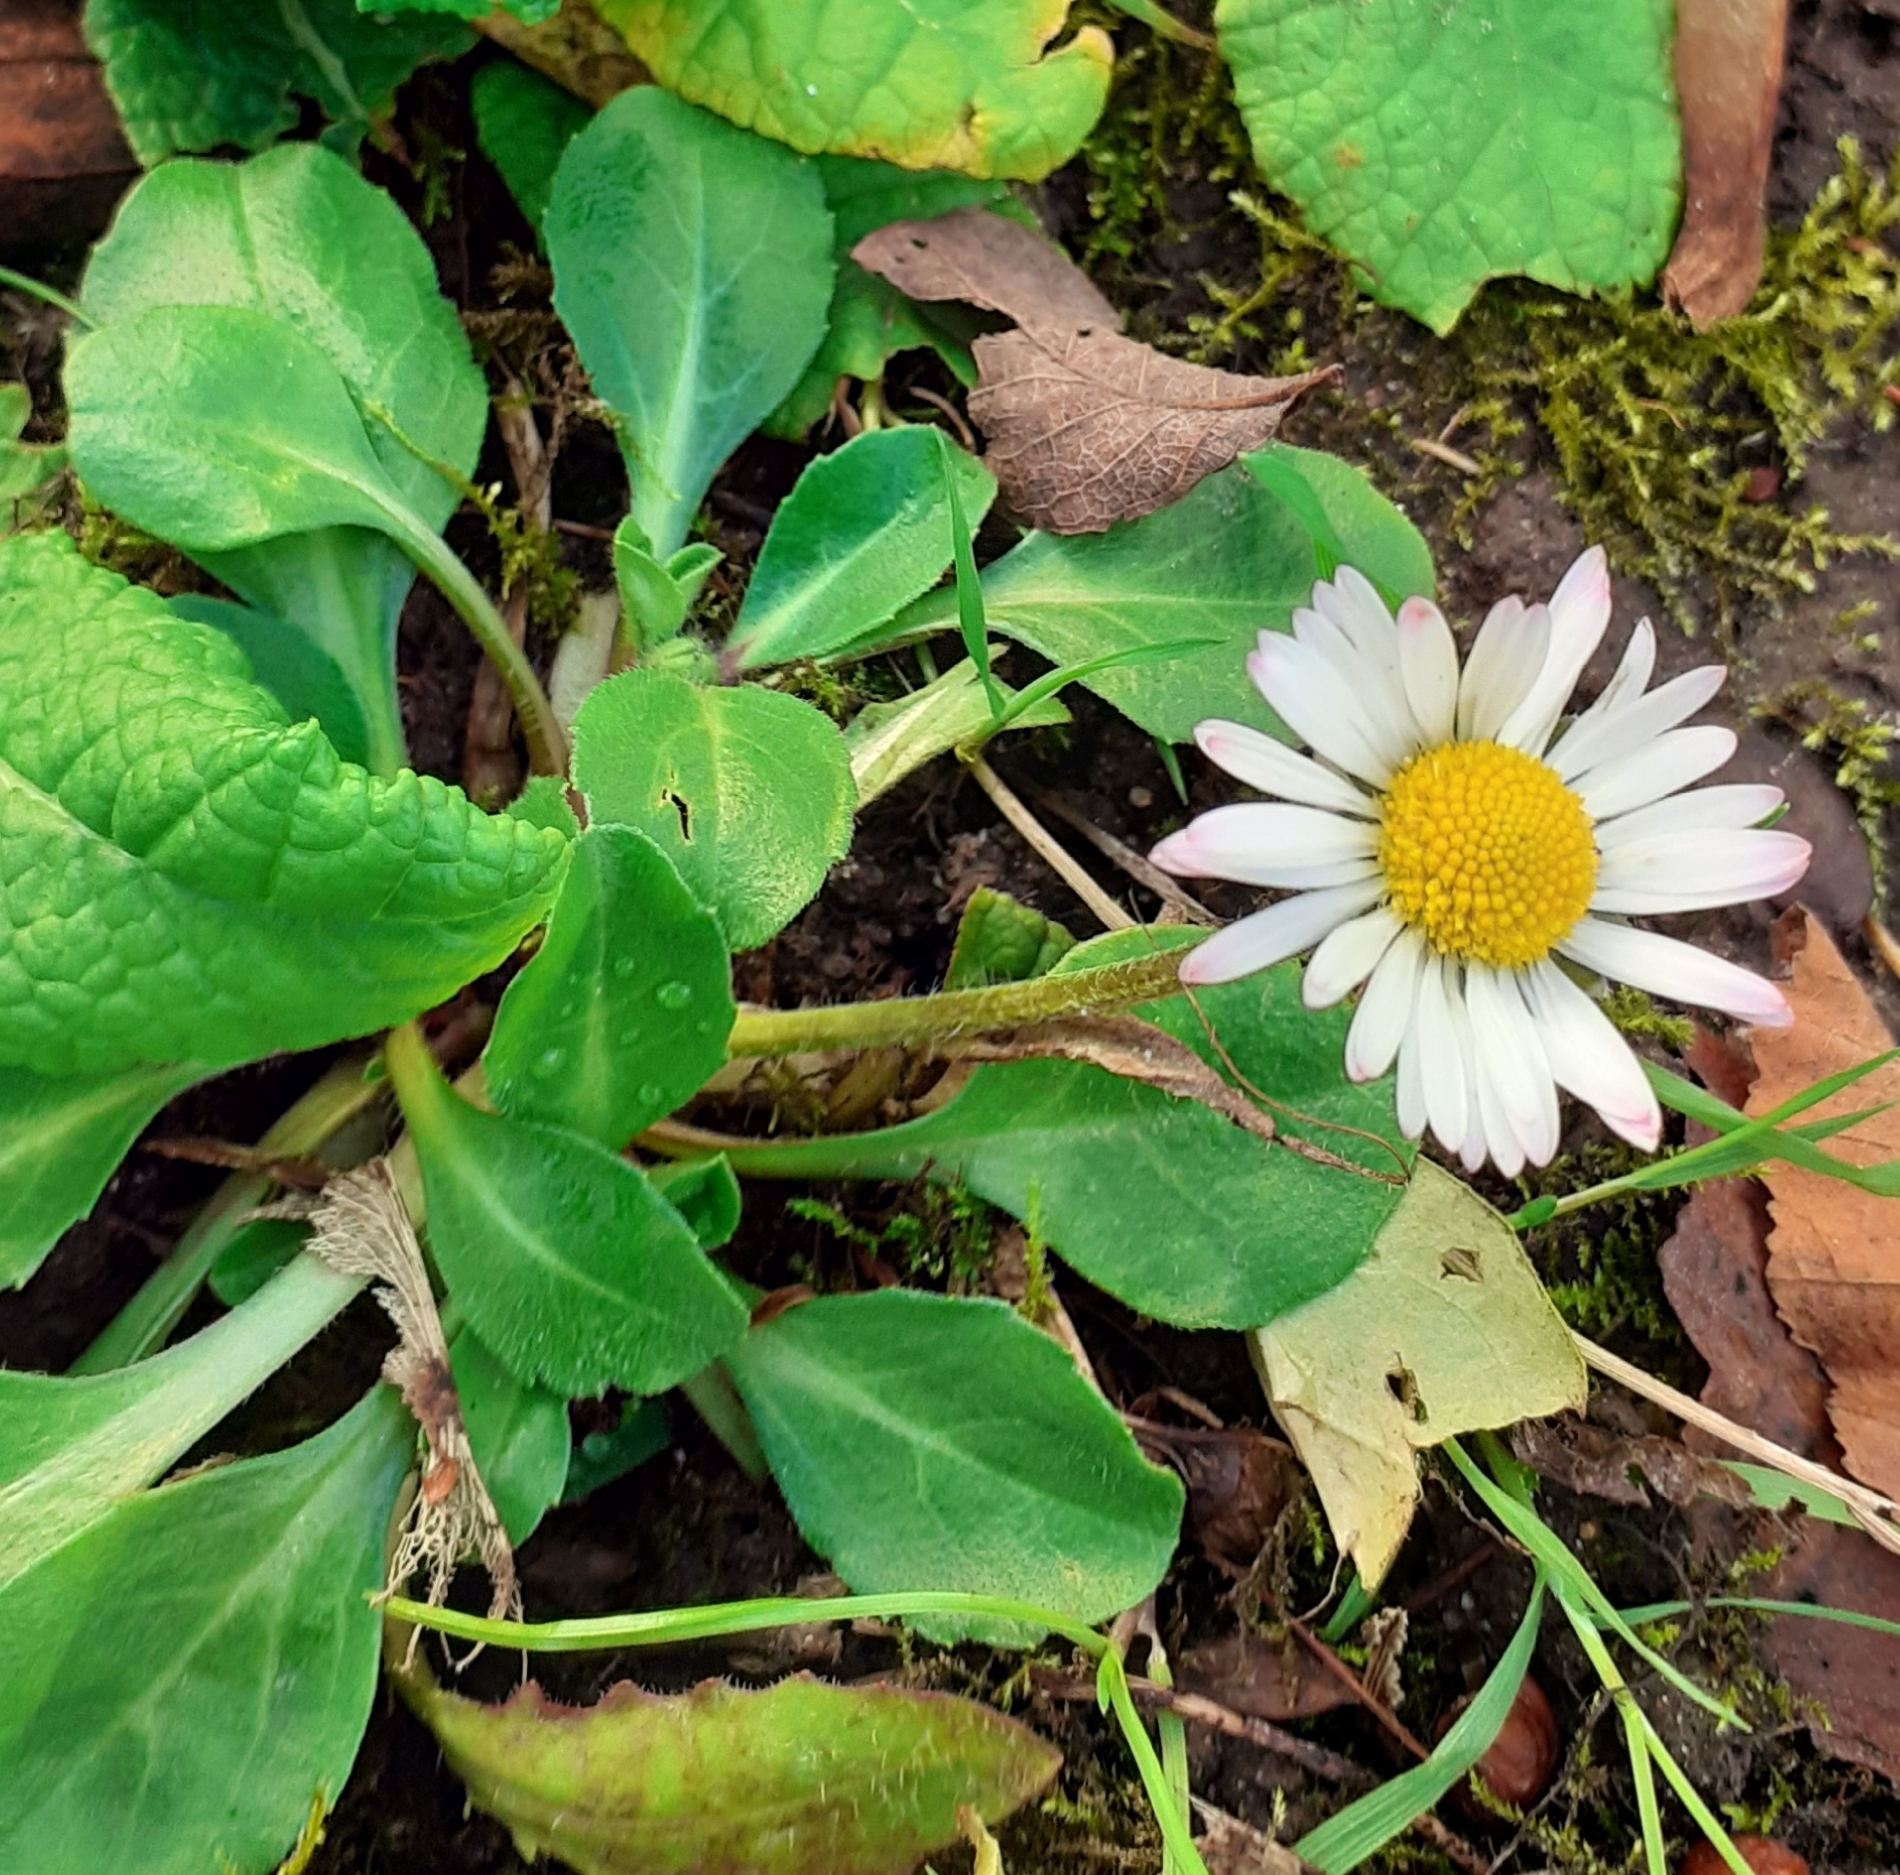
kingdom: Plantae
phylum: Tracheophyta
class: Magnoliopsida
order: Asterales
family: Asteraceae
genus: Bellis
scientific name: Bellis perennis
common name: Lawndaisy
